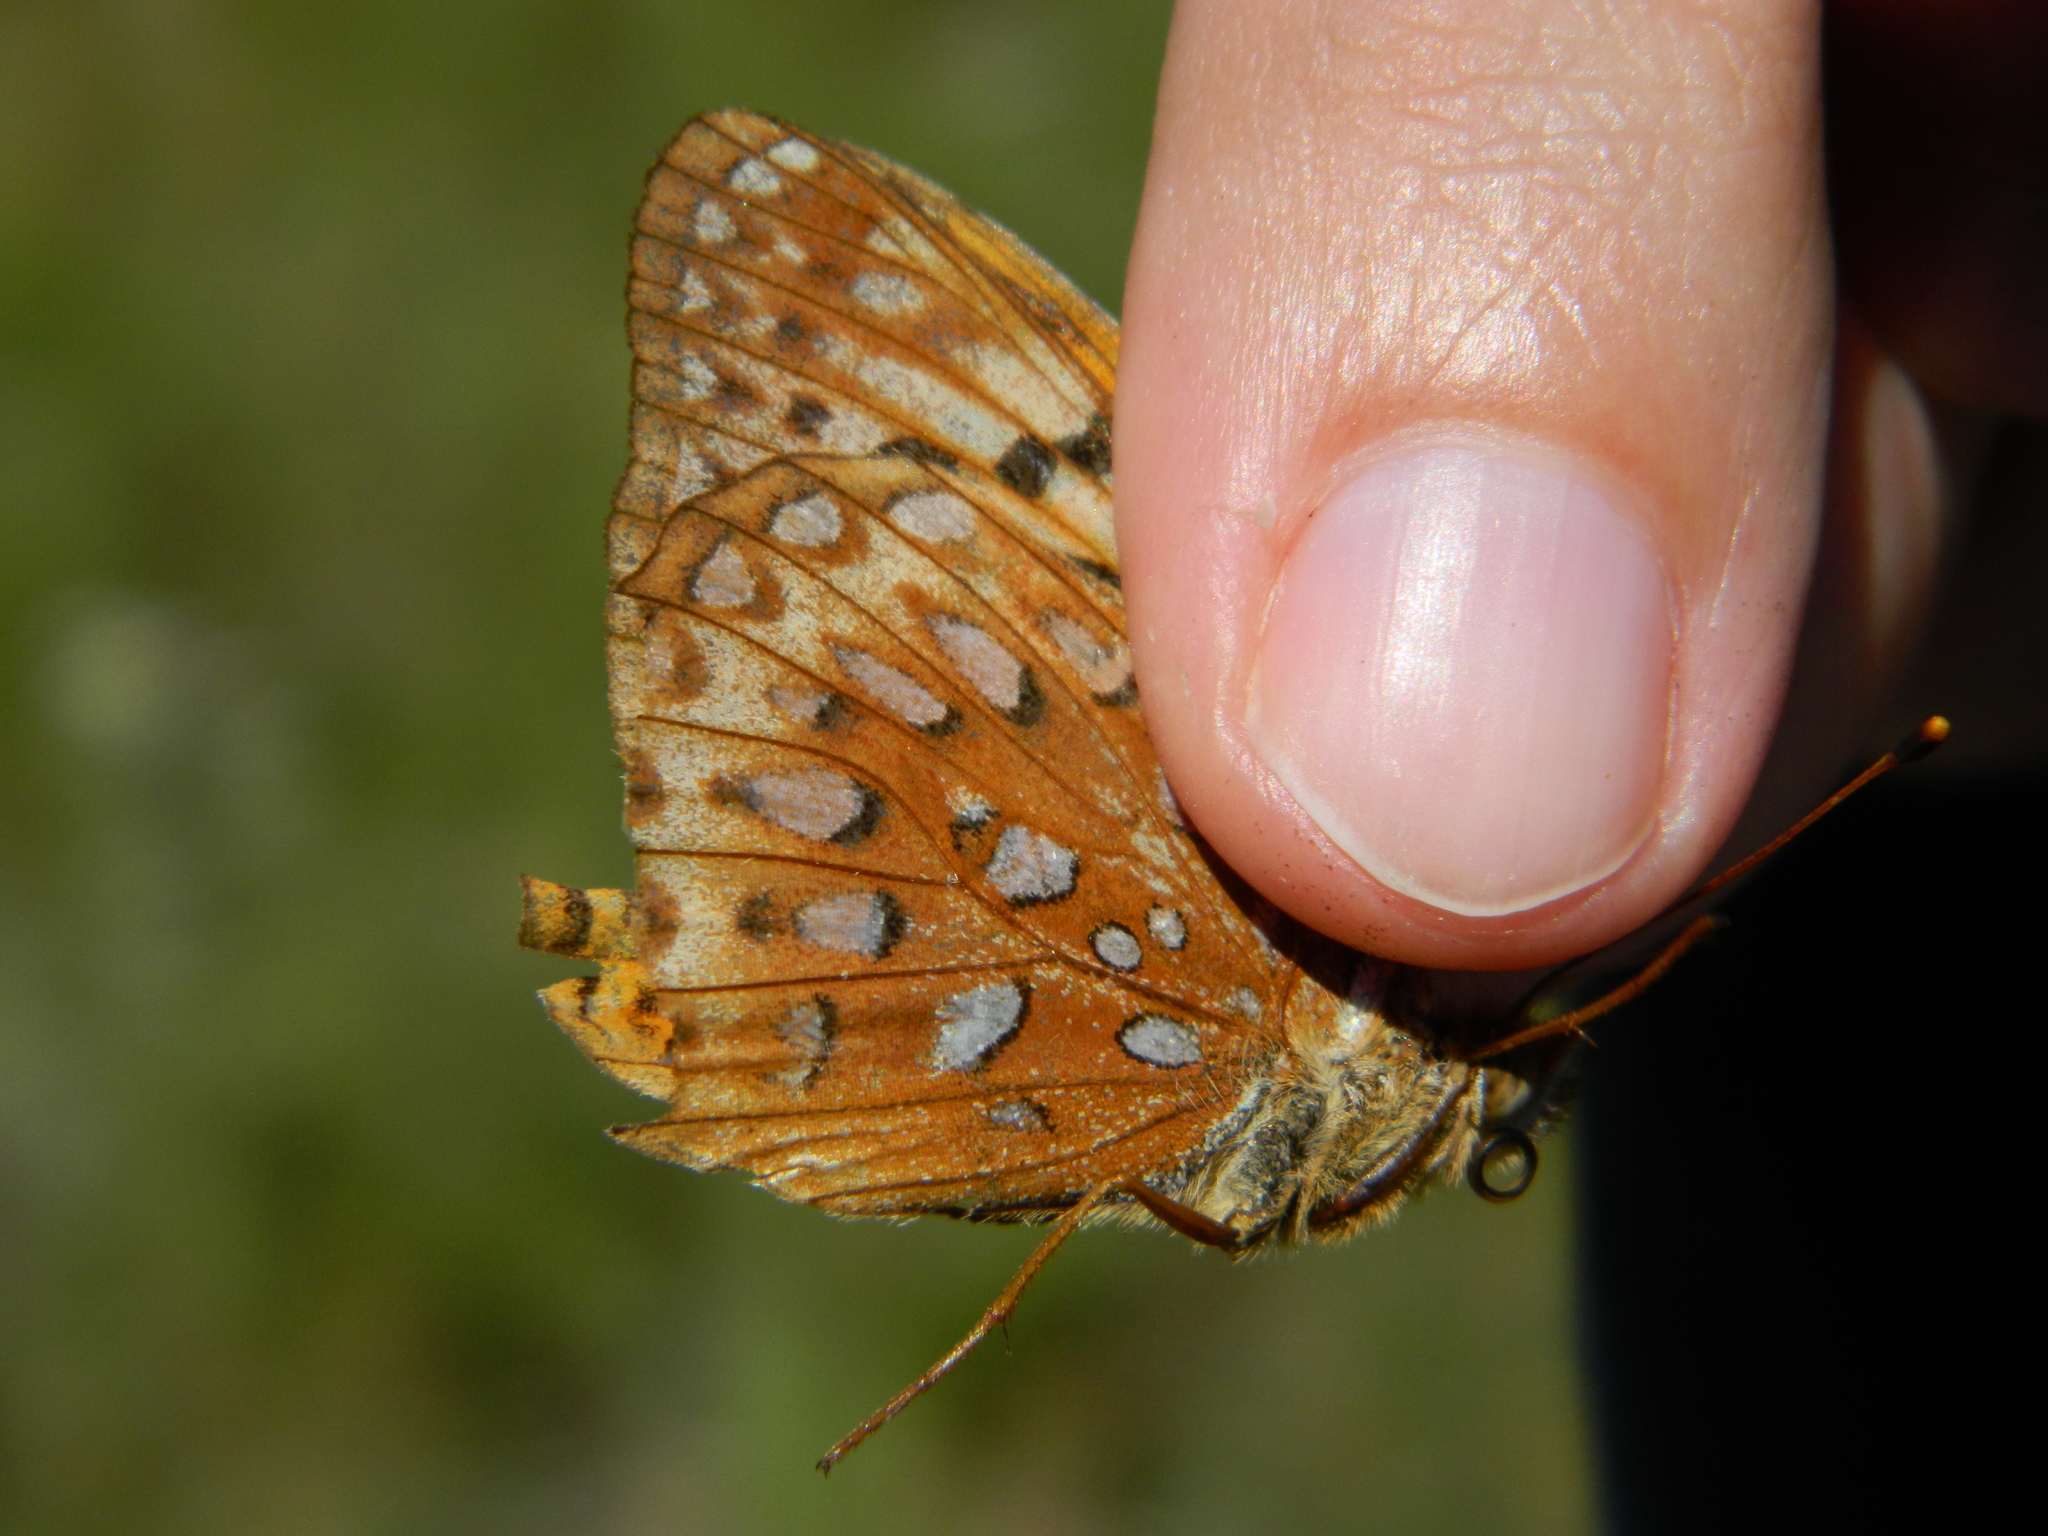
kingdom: Animalia
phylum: Arthropoda
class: Insecta
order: Lepidoptera
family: Nymphalidae
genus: Speyeria
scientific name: Speyeria aphrodite
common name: Aphrodite friitllary
